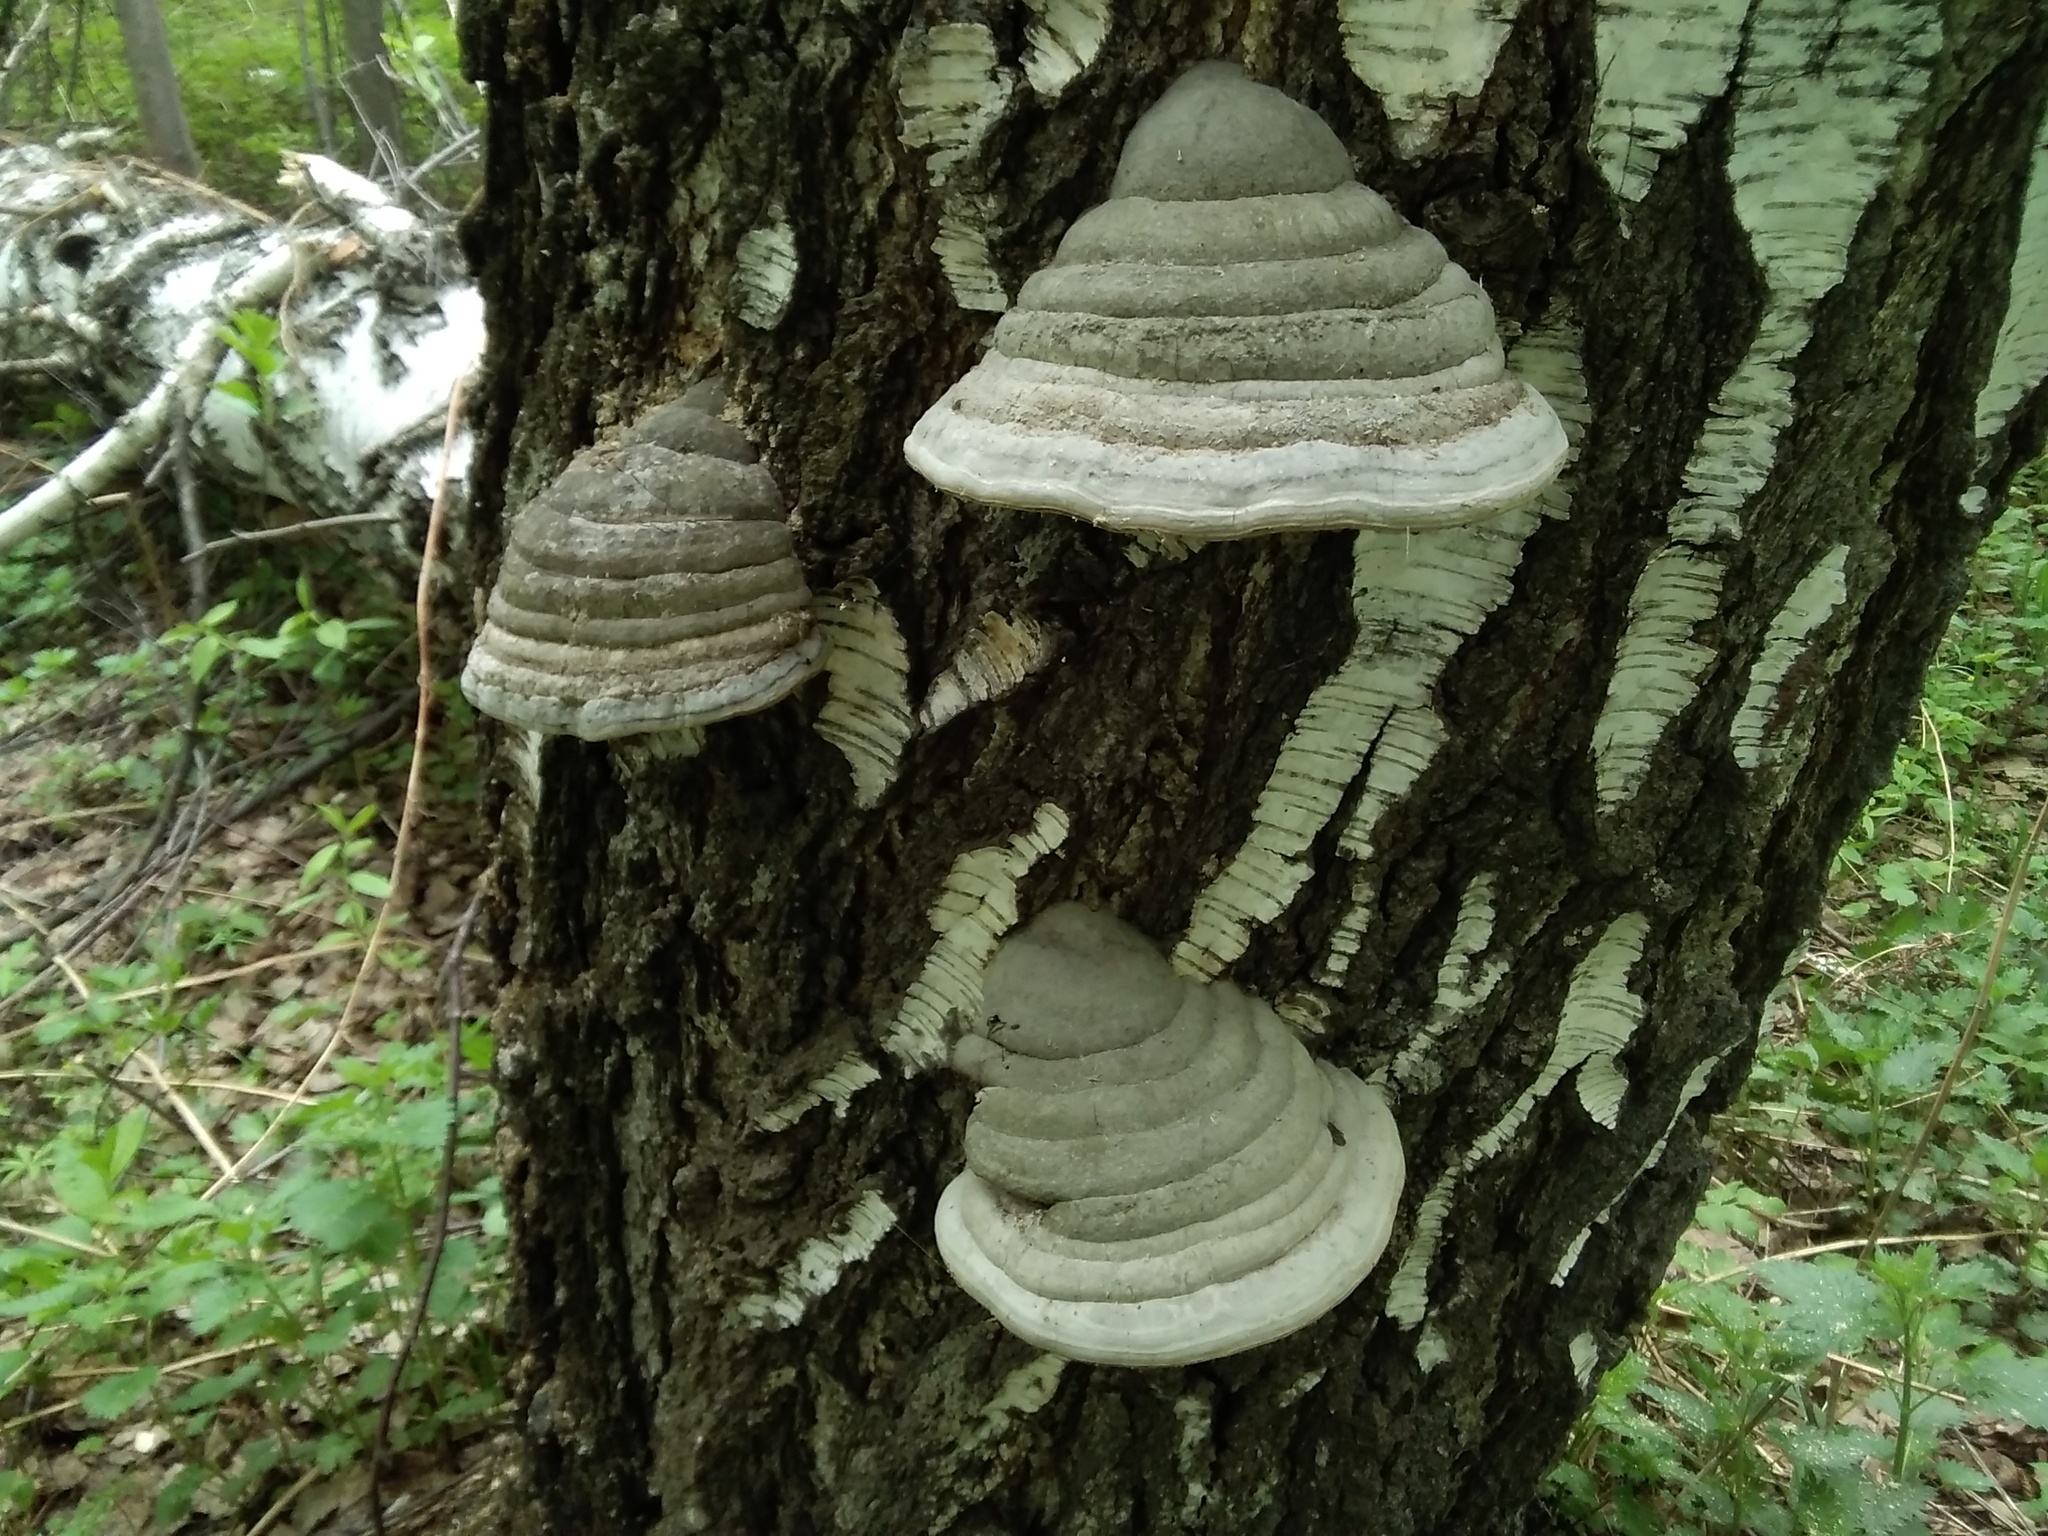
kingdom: Fungi
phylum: Basidiomycota
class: Agaricomycetes
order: Polyporales
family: Polyporaceae
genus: Fomes
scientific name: Fomes fomentarius
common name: Hoof fungus
